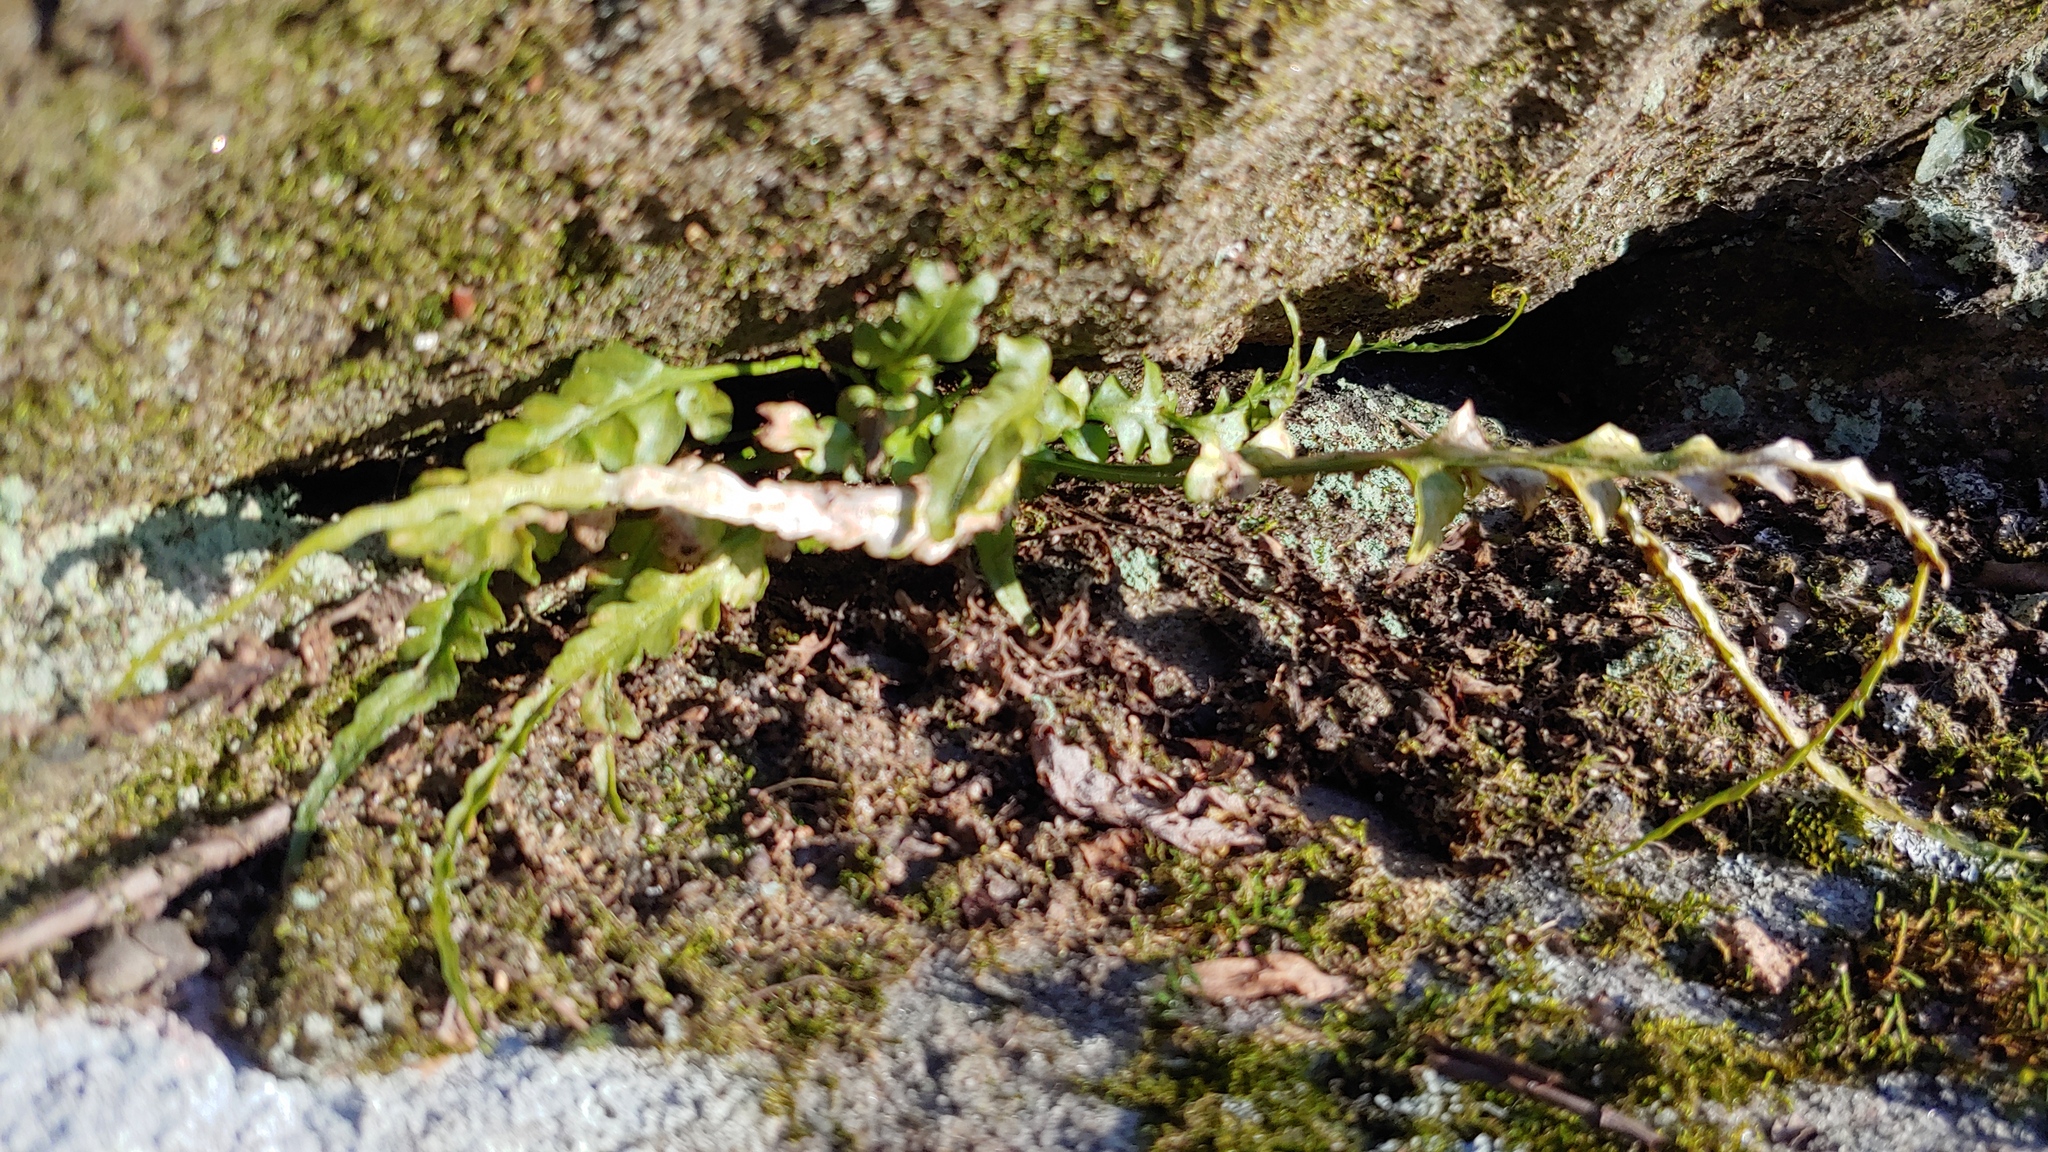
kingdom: Plantae
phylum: Tracheophyta
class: Polypodiopsida
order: Polypodiales
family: Aspleniaceae
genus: Asplenium
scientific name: Asplenium pinnatifidum
